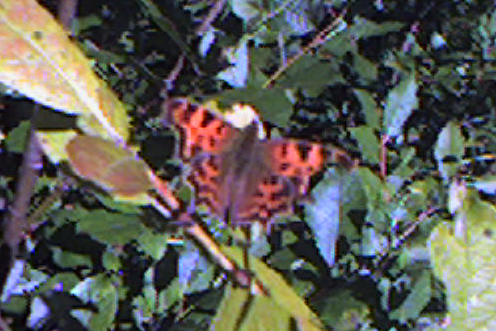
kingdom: Animalia
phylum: Arthropoda
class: Insecta
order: Lepidoptera
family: Nymphalidae
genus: Polygonia
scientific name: Polygonia c-album
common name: Comma
